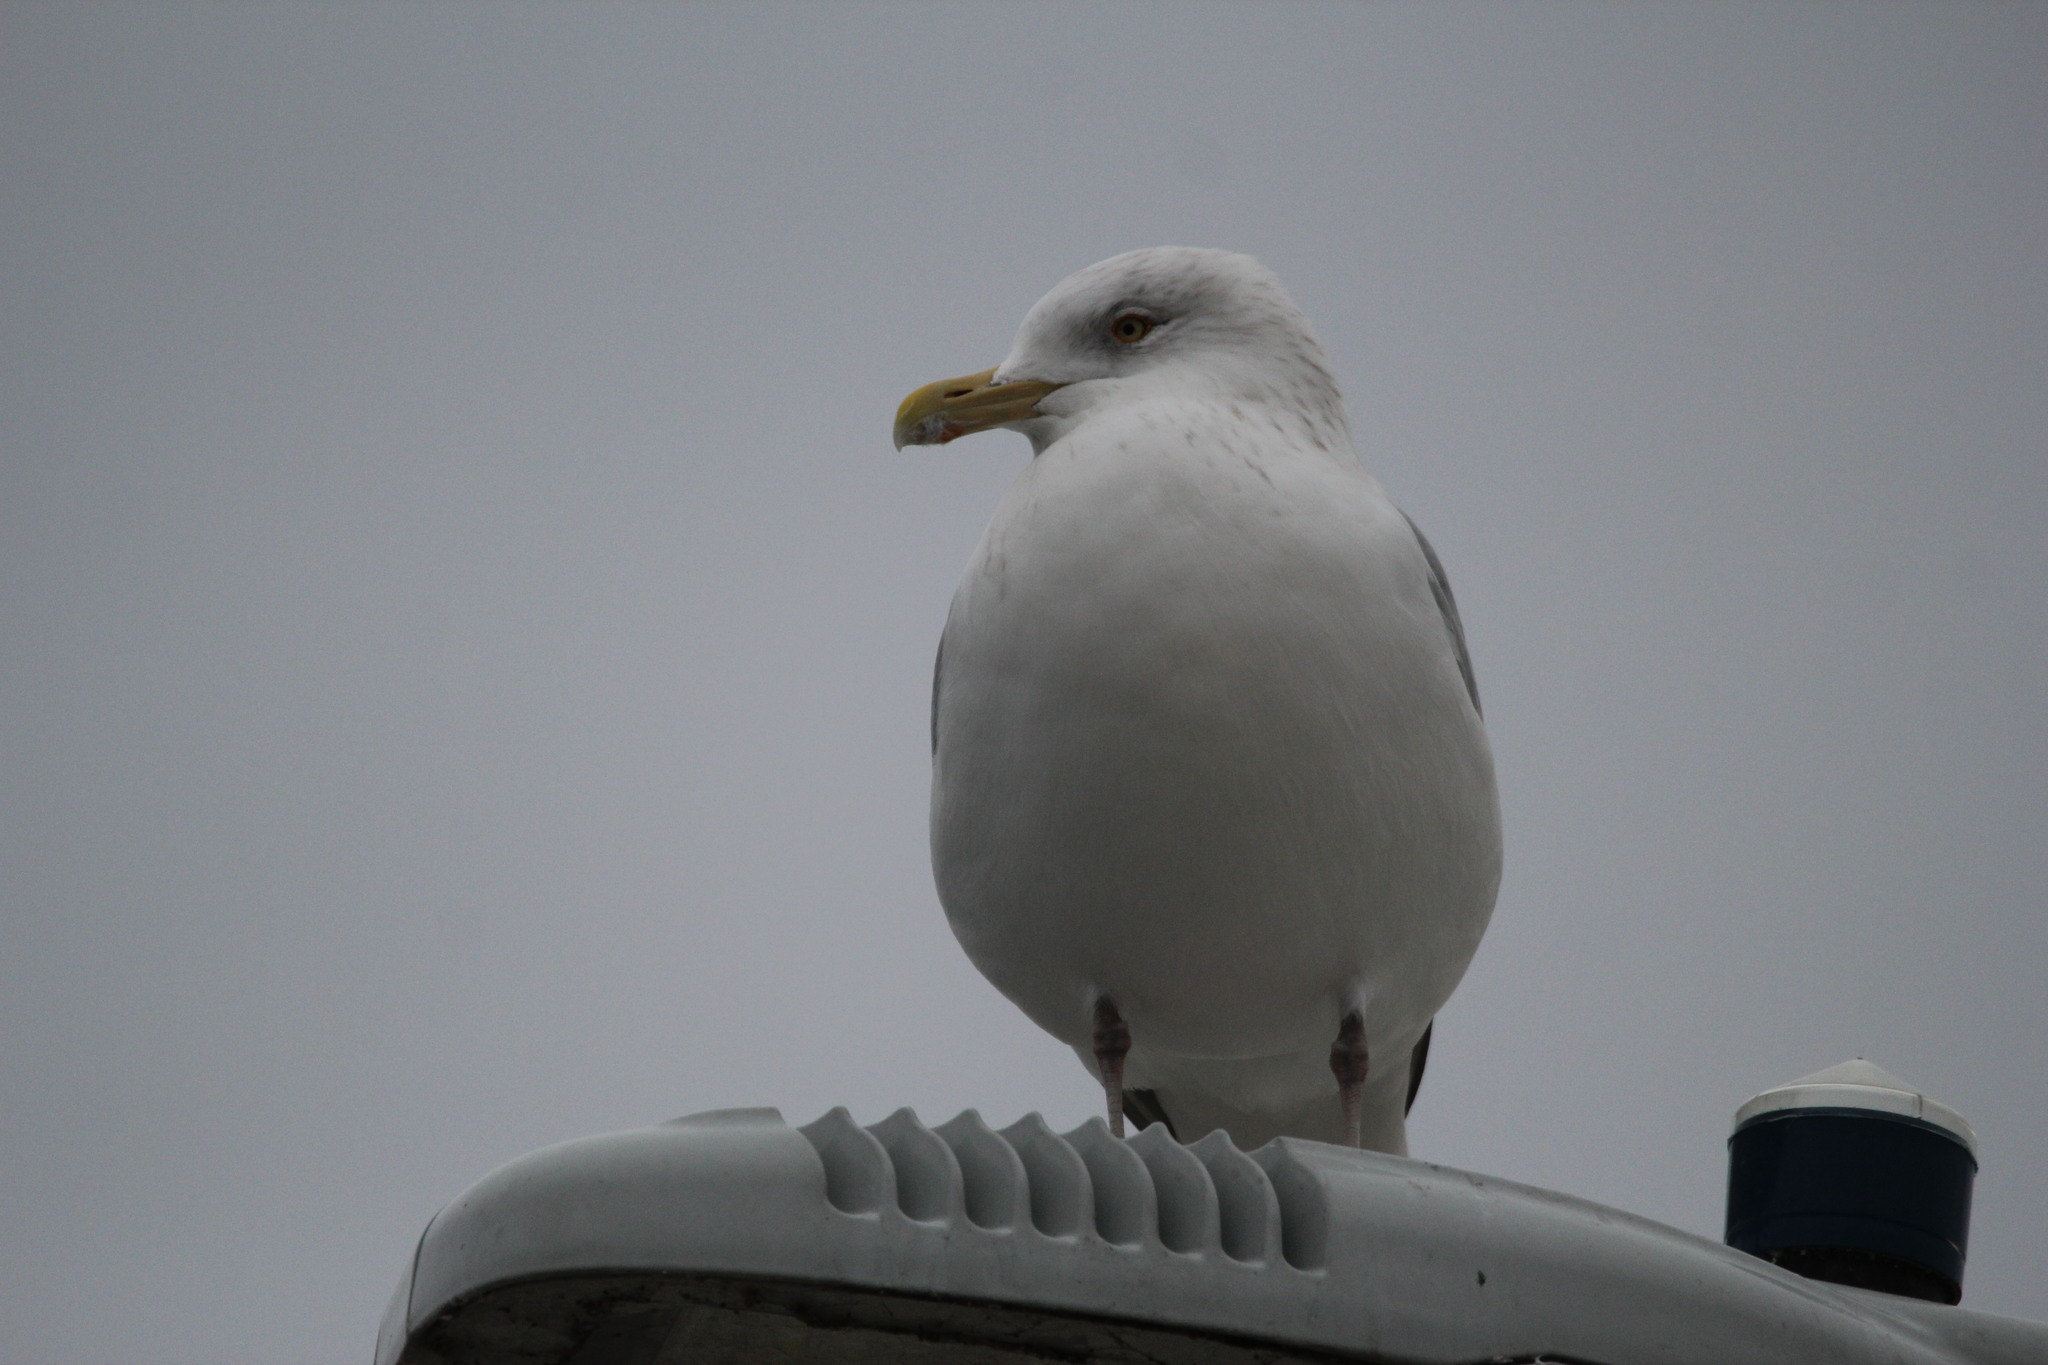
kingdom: Animalia
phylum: Chordata
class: Aves
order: Charadriiformes
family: Laridae
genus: Larus
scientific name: Larus argentatus
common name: Herring gull
